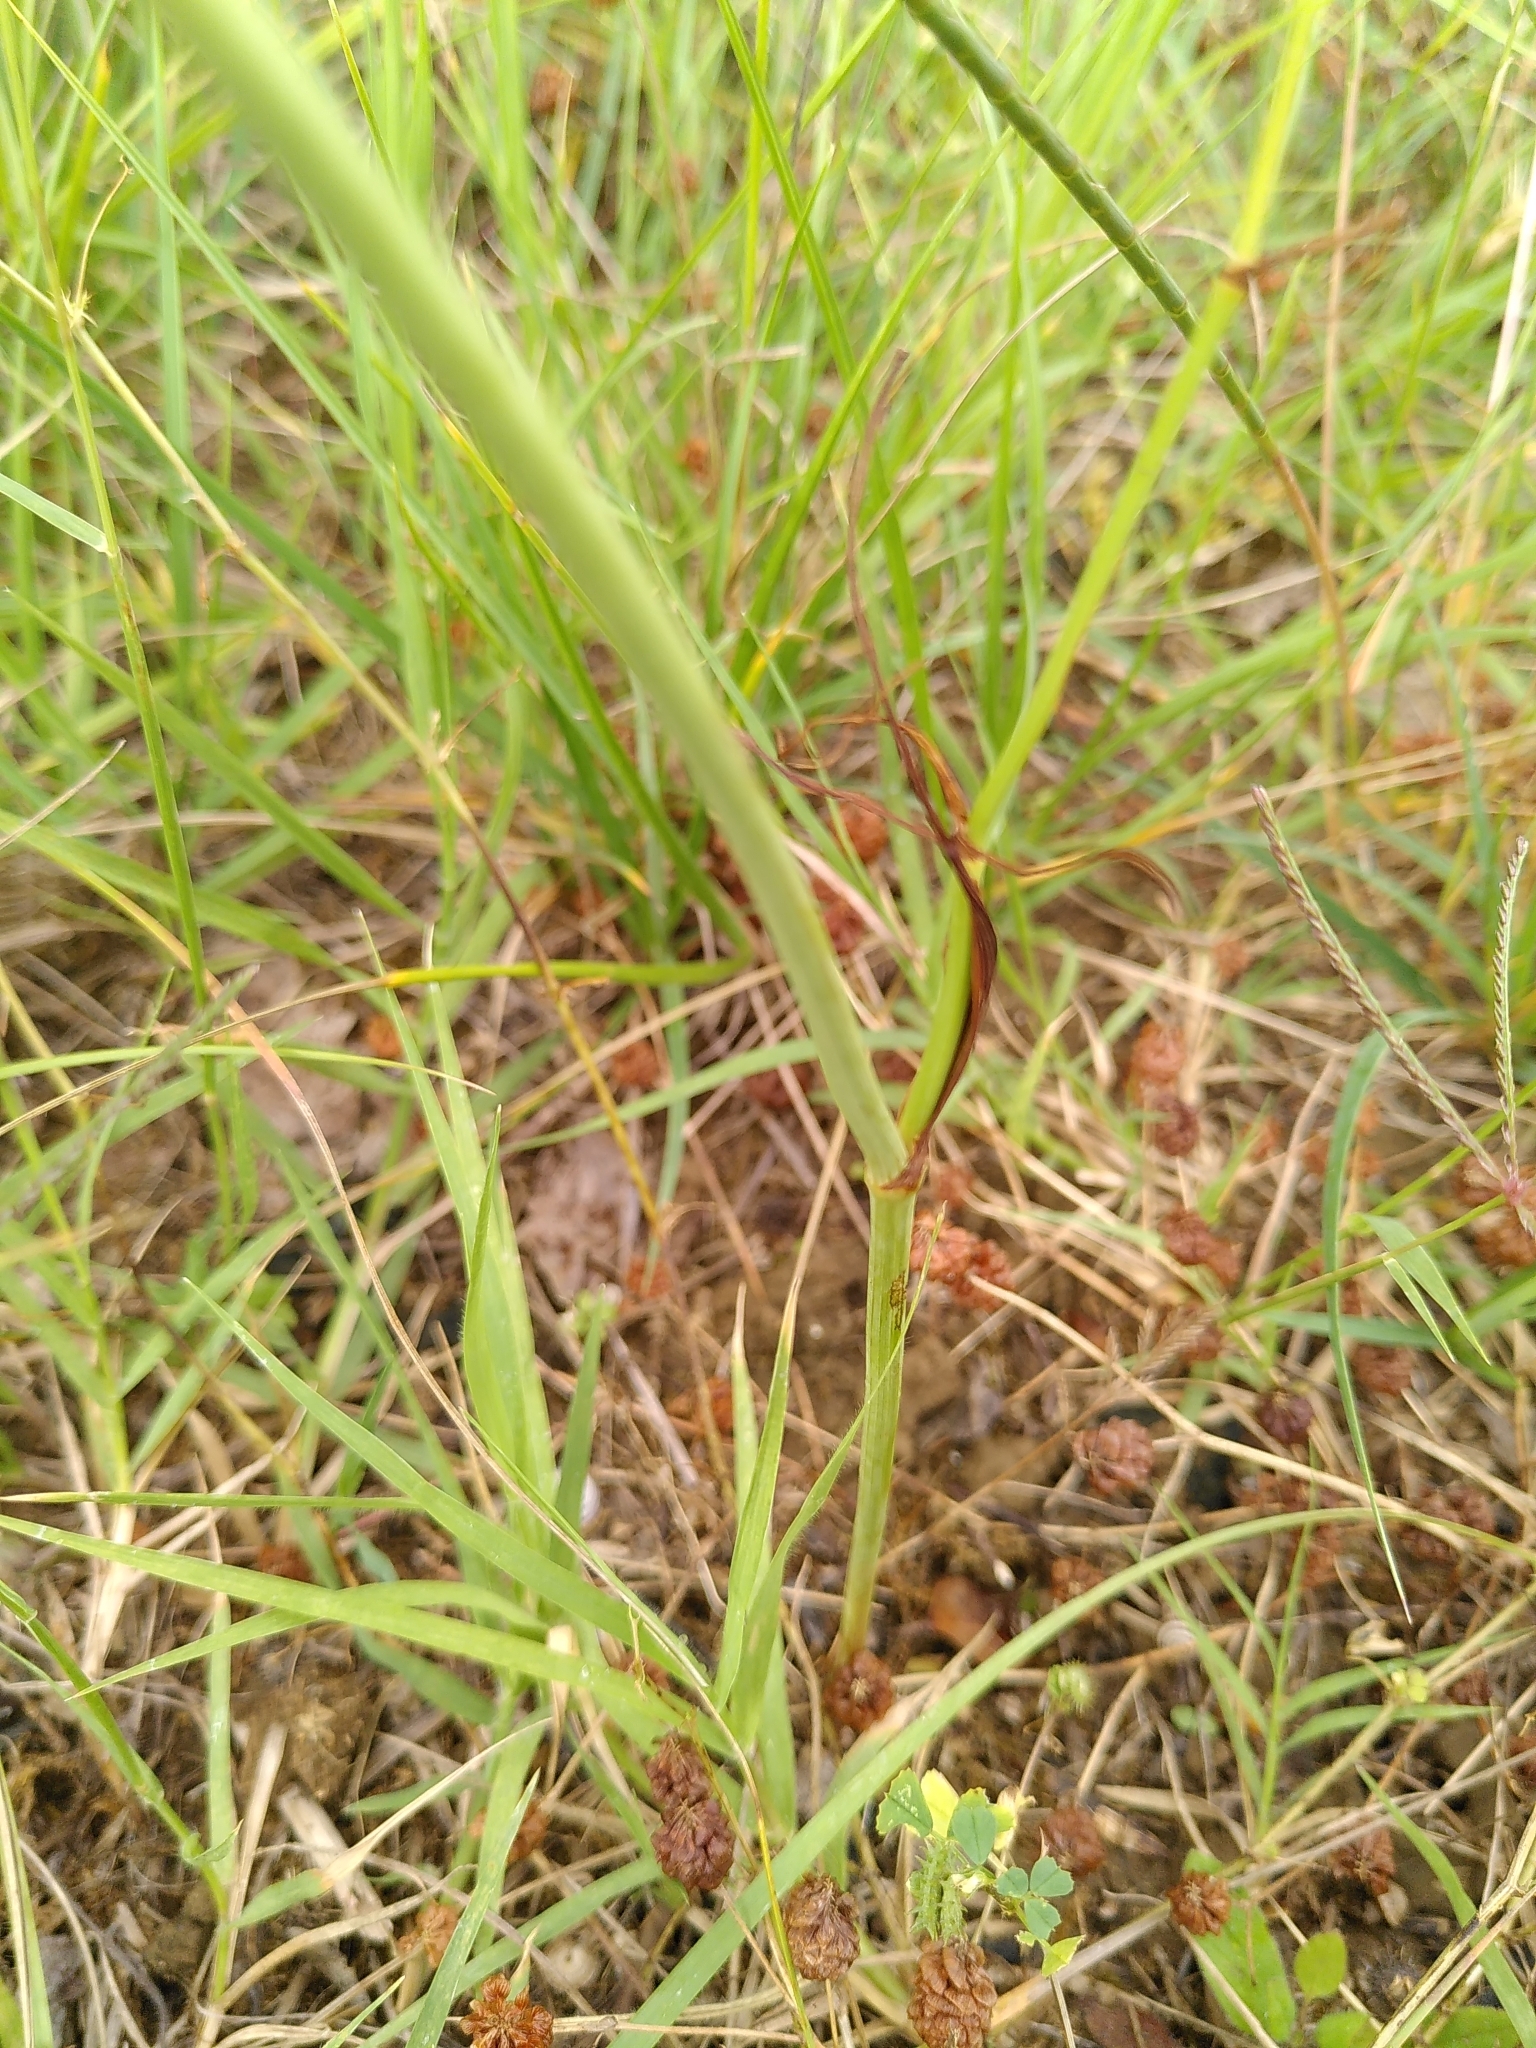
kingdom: Plantae
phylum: Tracheophyta
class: Magnoliopsida
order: Apiales
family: Apiaceae
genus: Oenanthe
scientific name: Oenanthe pimpinelloides
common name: Corky-fruited water-dropwort
